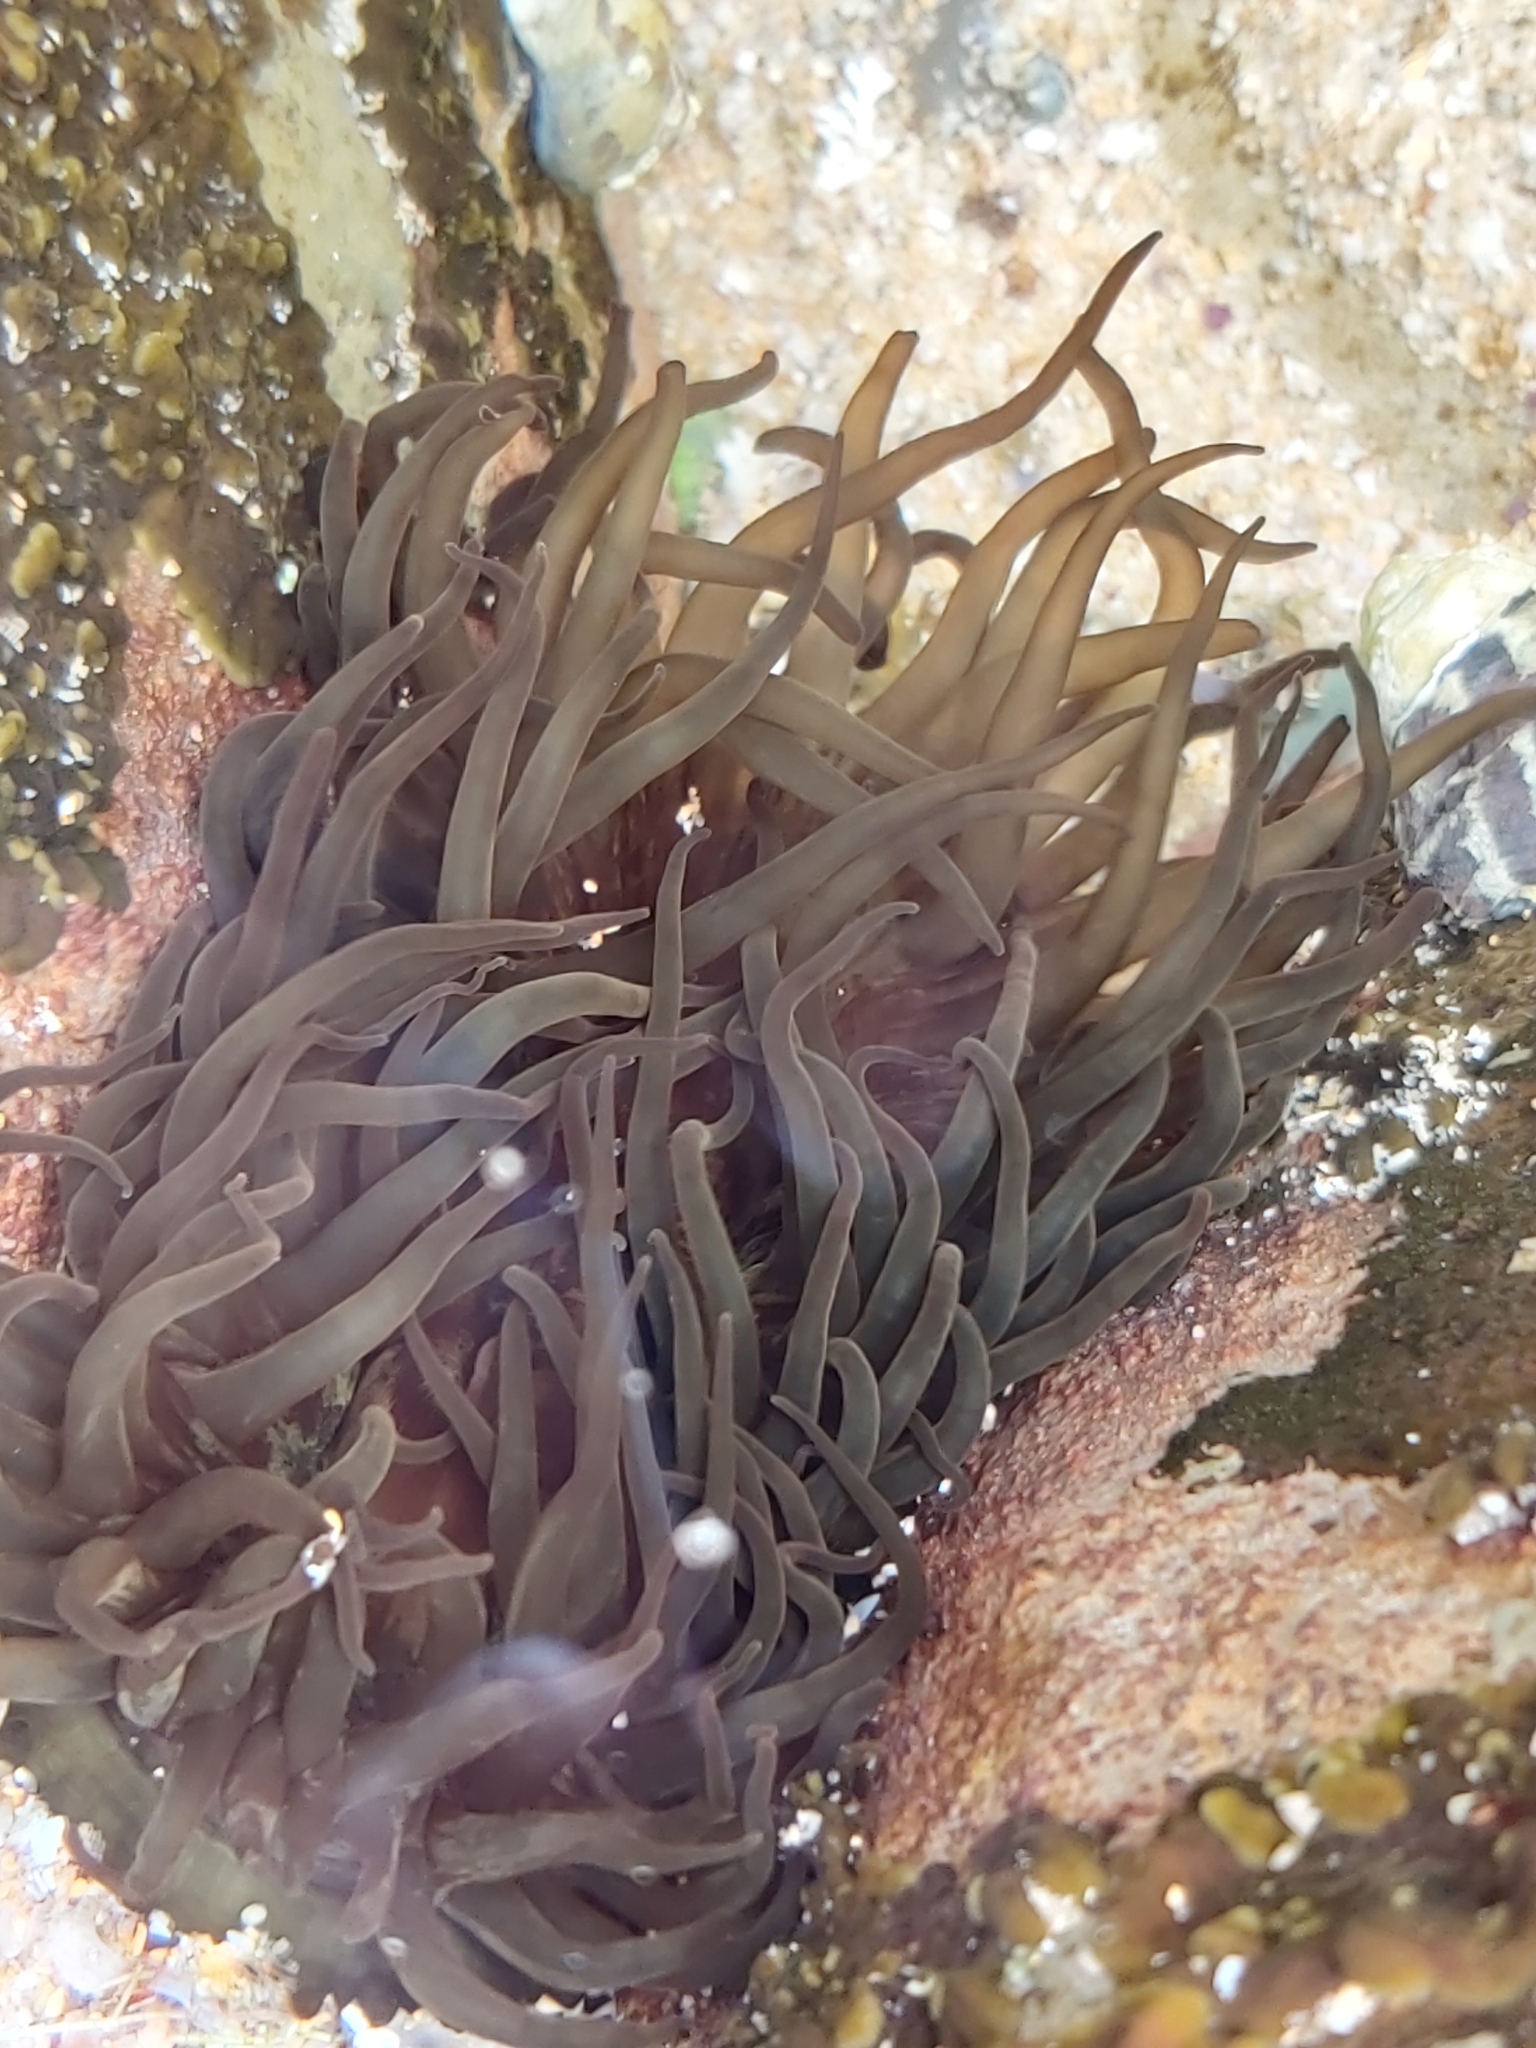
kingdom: Animalia
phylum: Cnidaria
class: Anthozoa
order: Actiniaria
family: Actiniidae
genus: Aulactinia
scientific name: Aulactinia veratra
